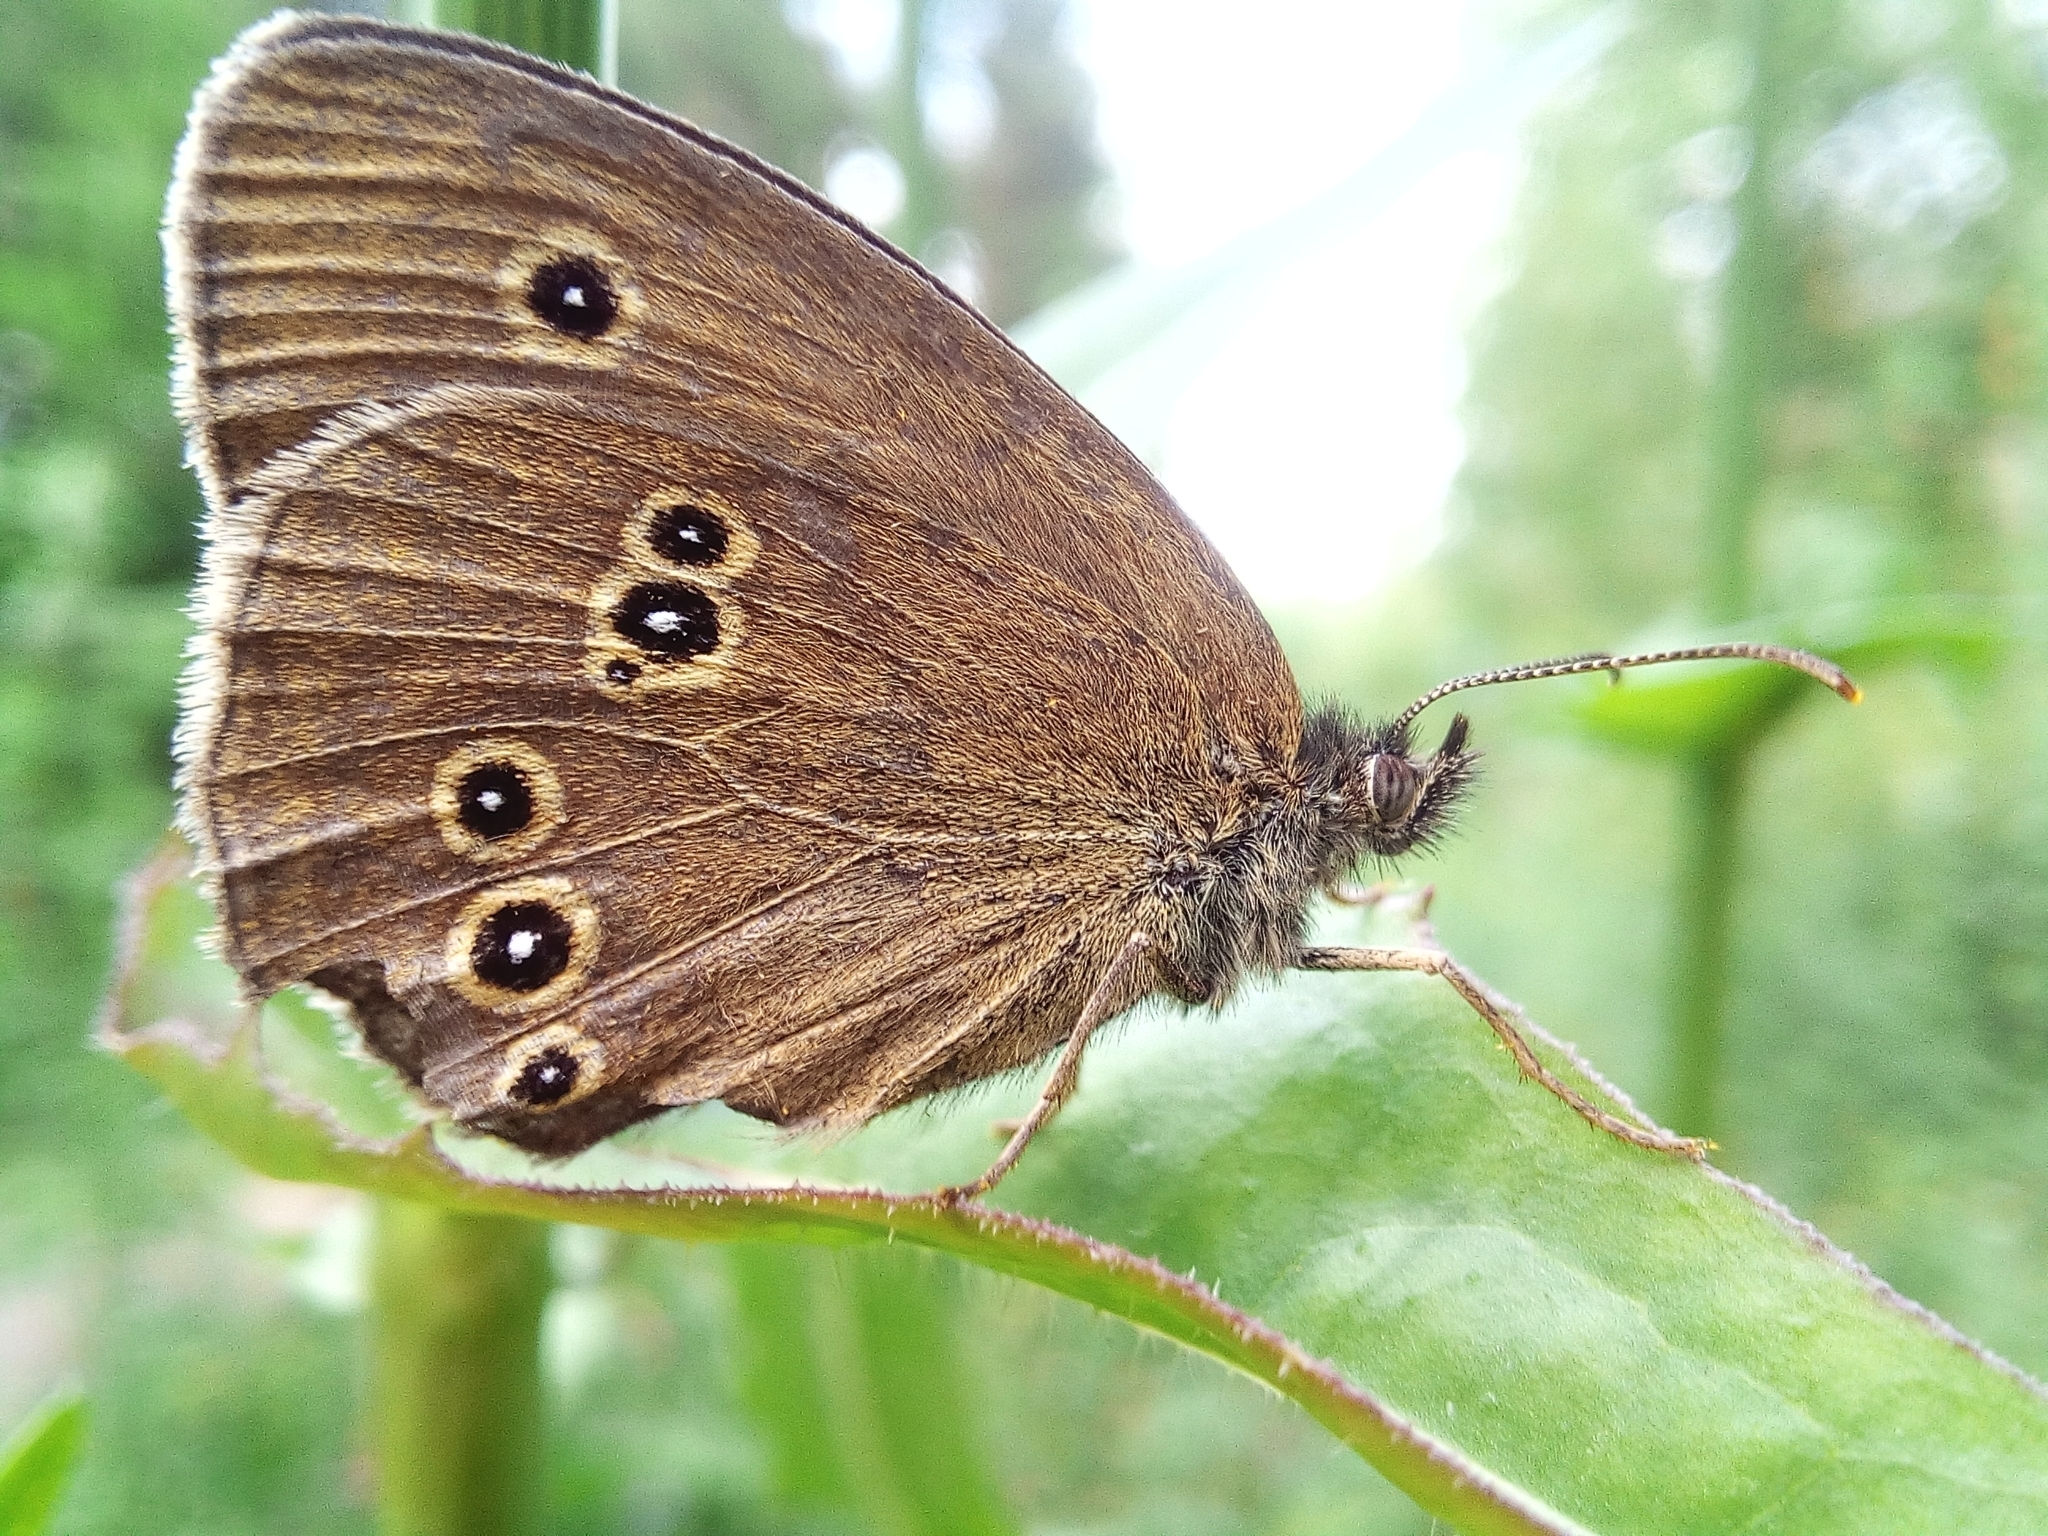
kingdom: Animalia
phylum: Arthropoda
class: Insecta
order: Lepidoptera
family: Nymphalidae
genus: Aphantopus
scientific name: Aphantopus hyperantus
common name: Ringlet
